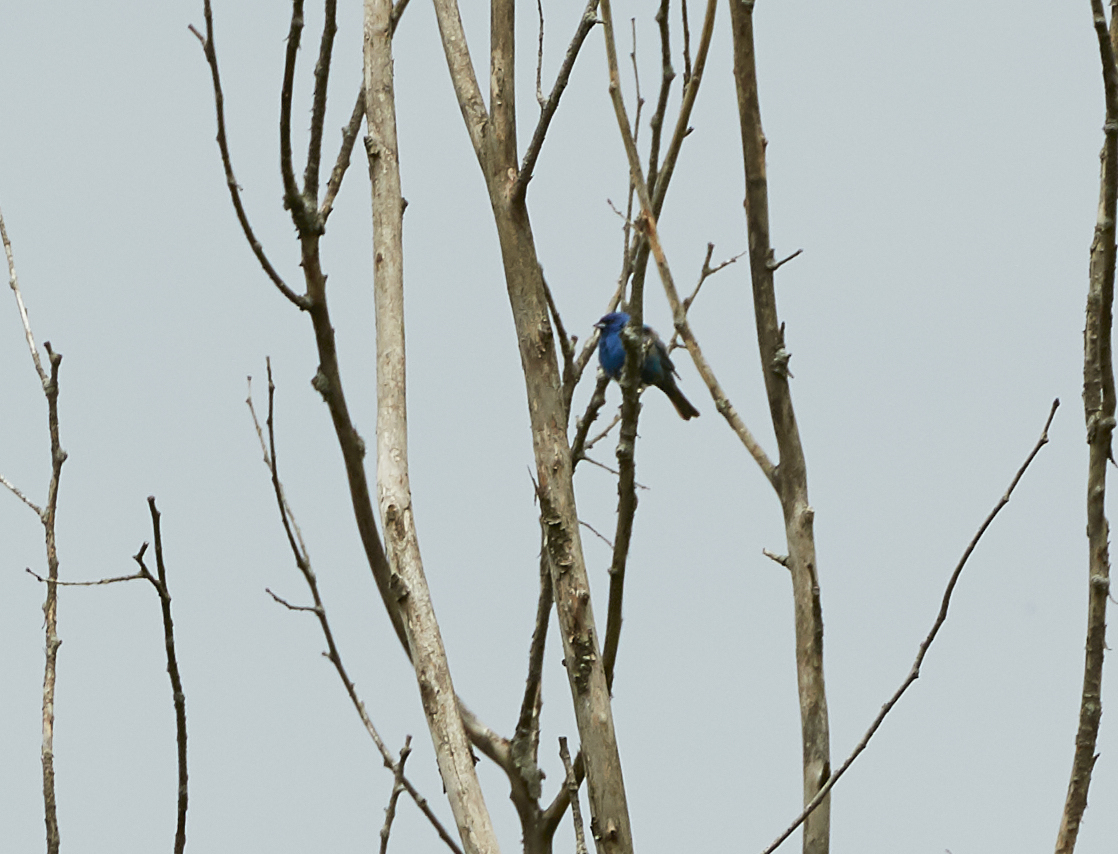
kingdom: Animalia
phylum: Chordata
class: Aves
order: Passeriformes
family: Cardinalidae
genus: Passerina
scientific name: Passerina cyanea
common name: Indigo bunting
